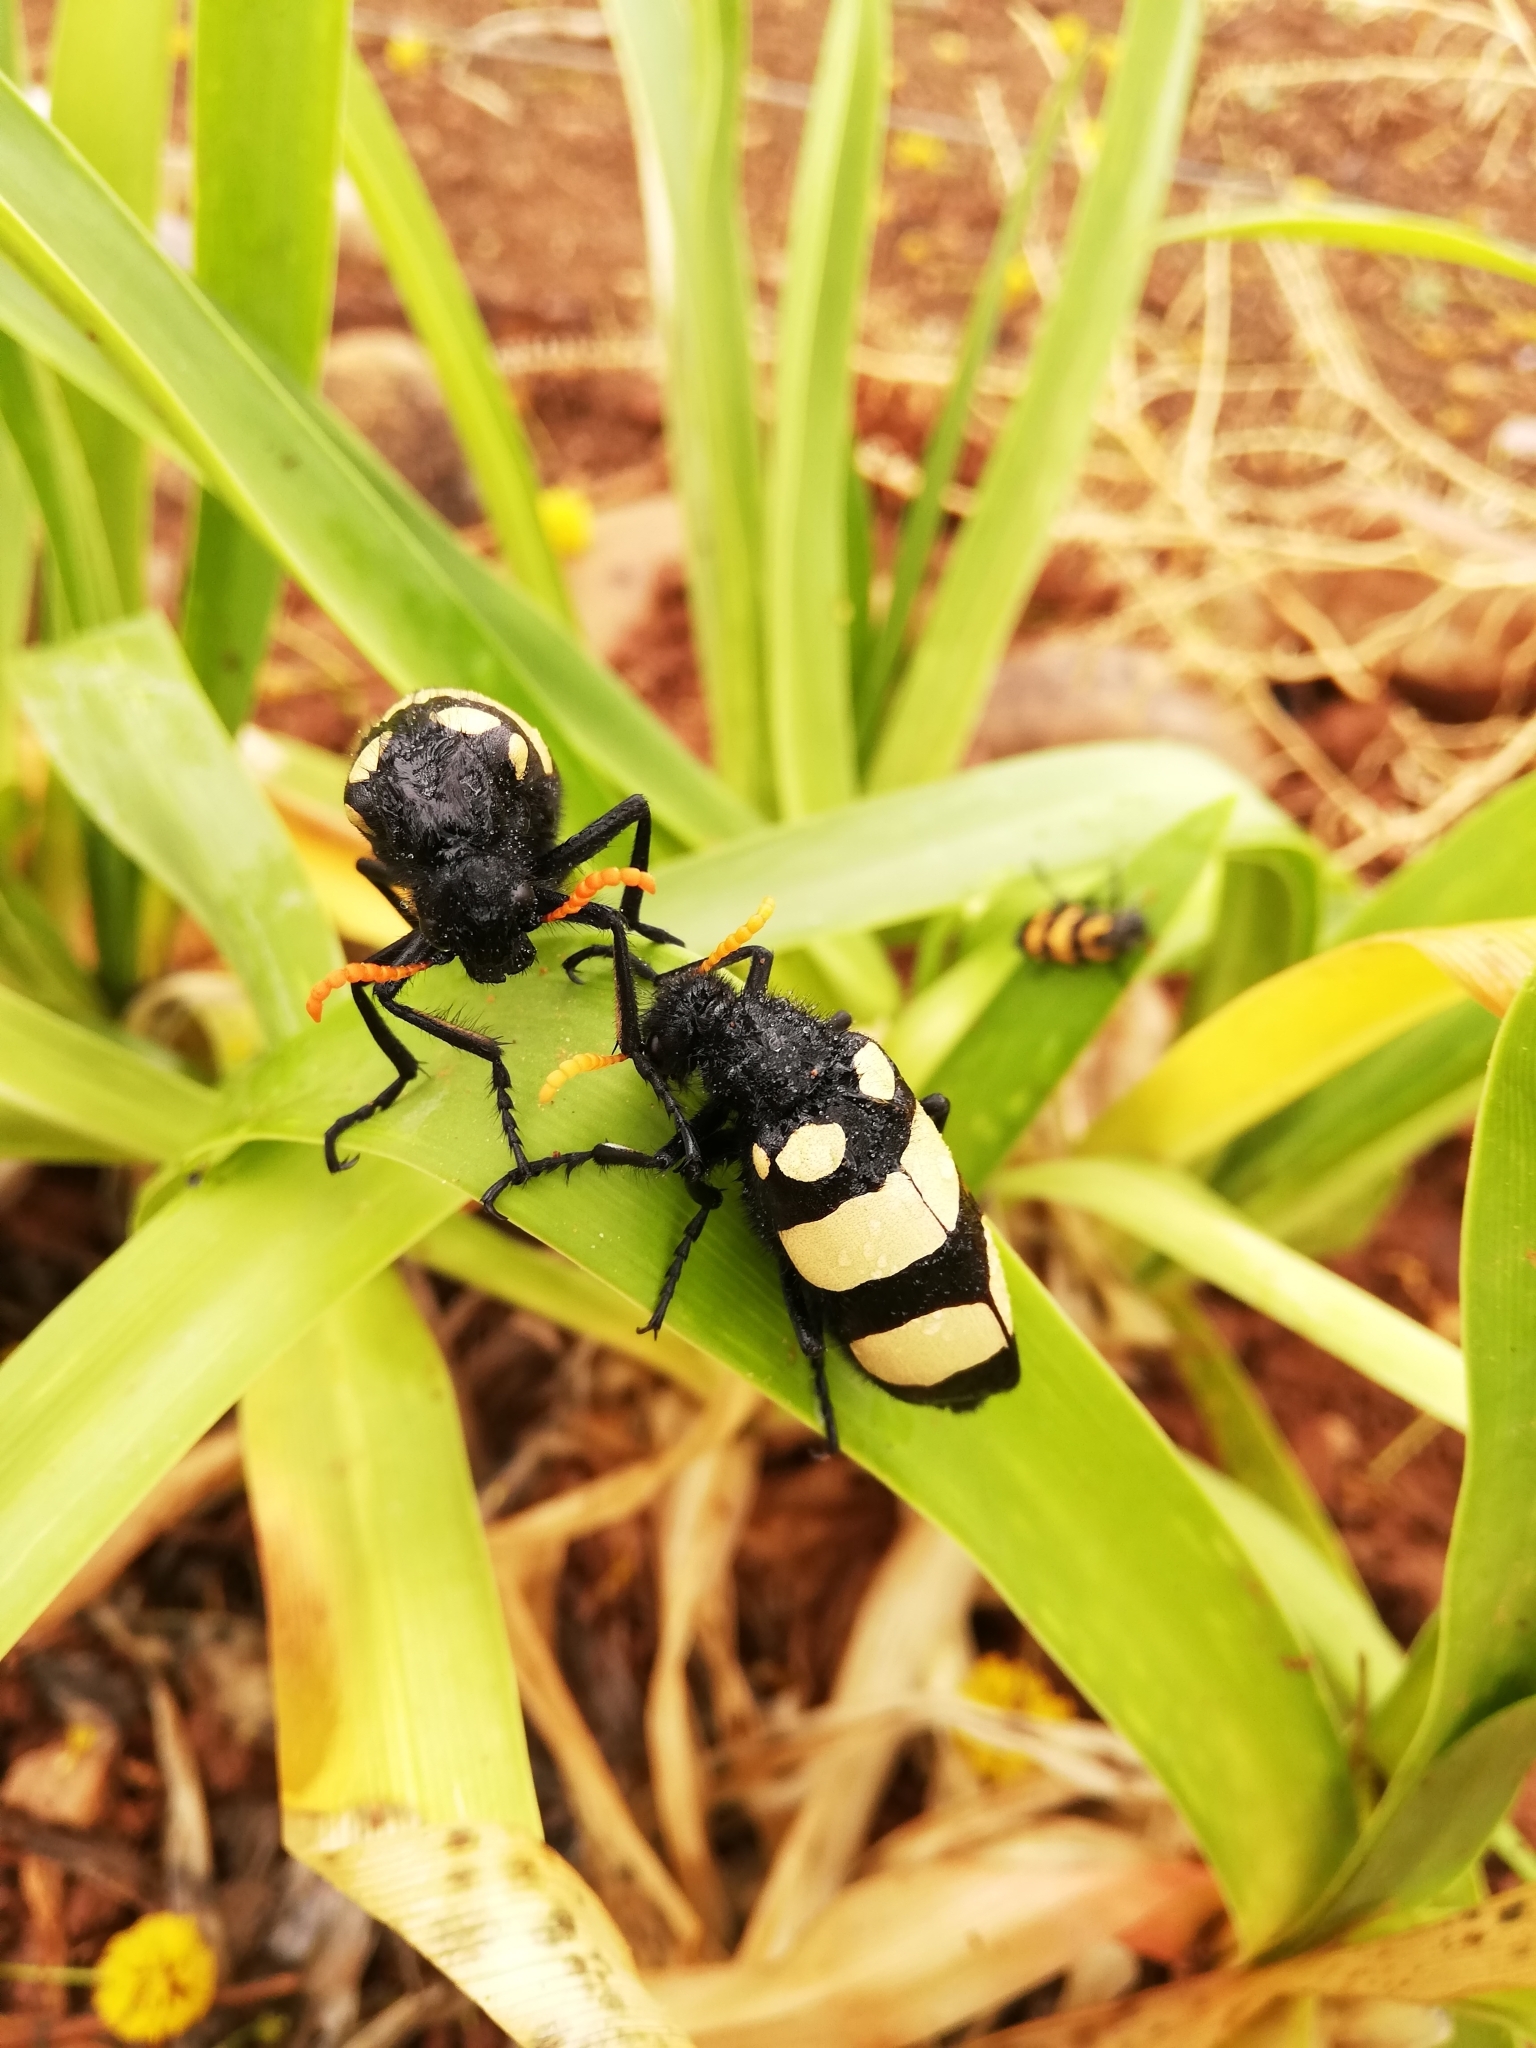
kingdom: Animalia
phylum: Arthropoda
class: Insecta
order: Coleoptera
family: Meloidae
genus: Hycleus
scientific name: Hycleus
